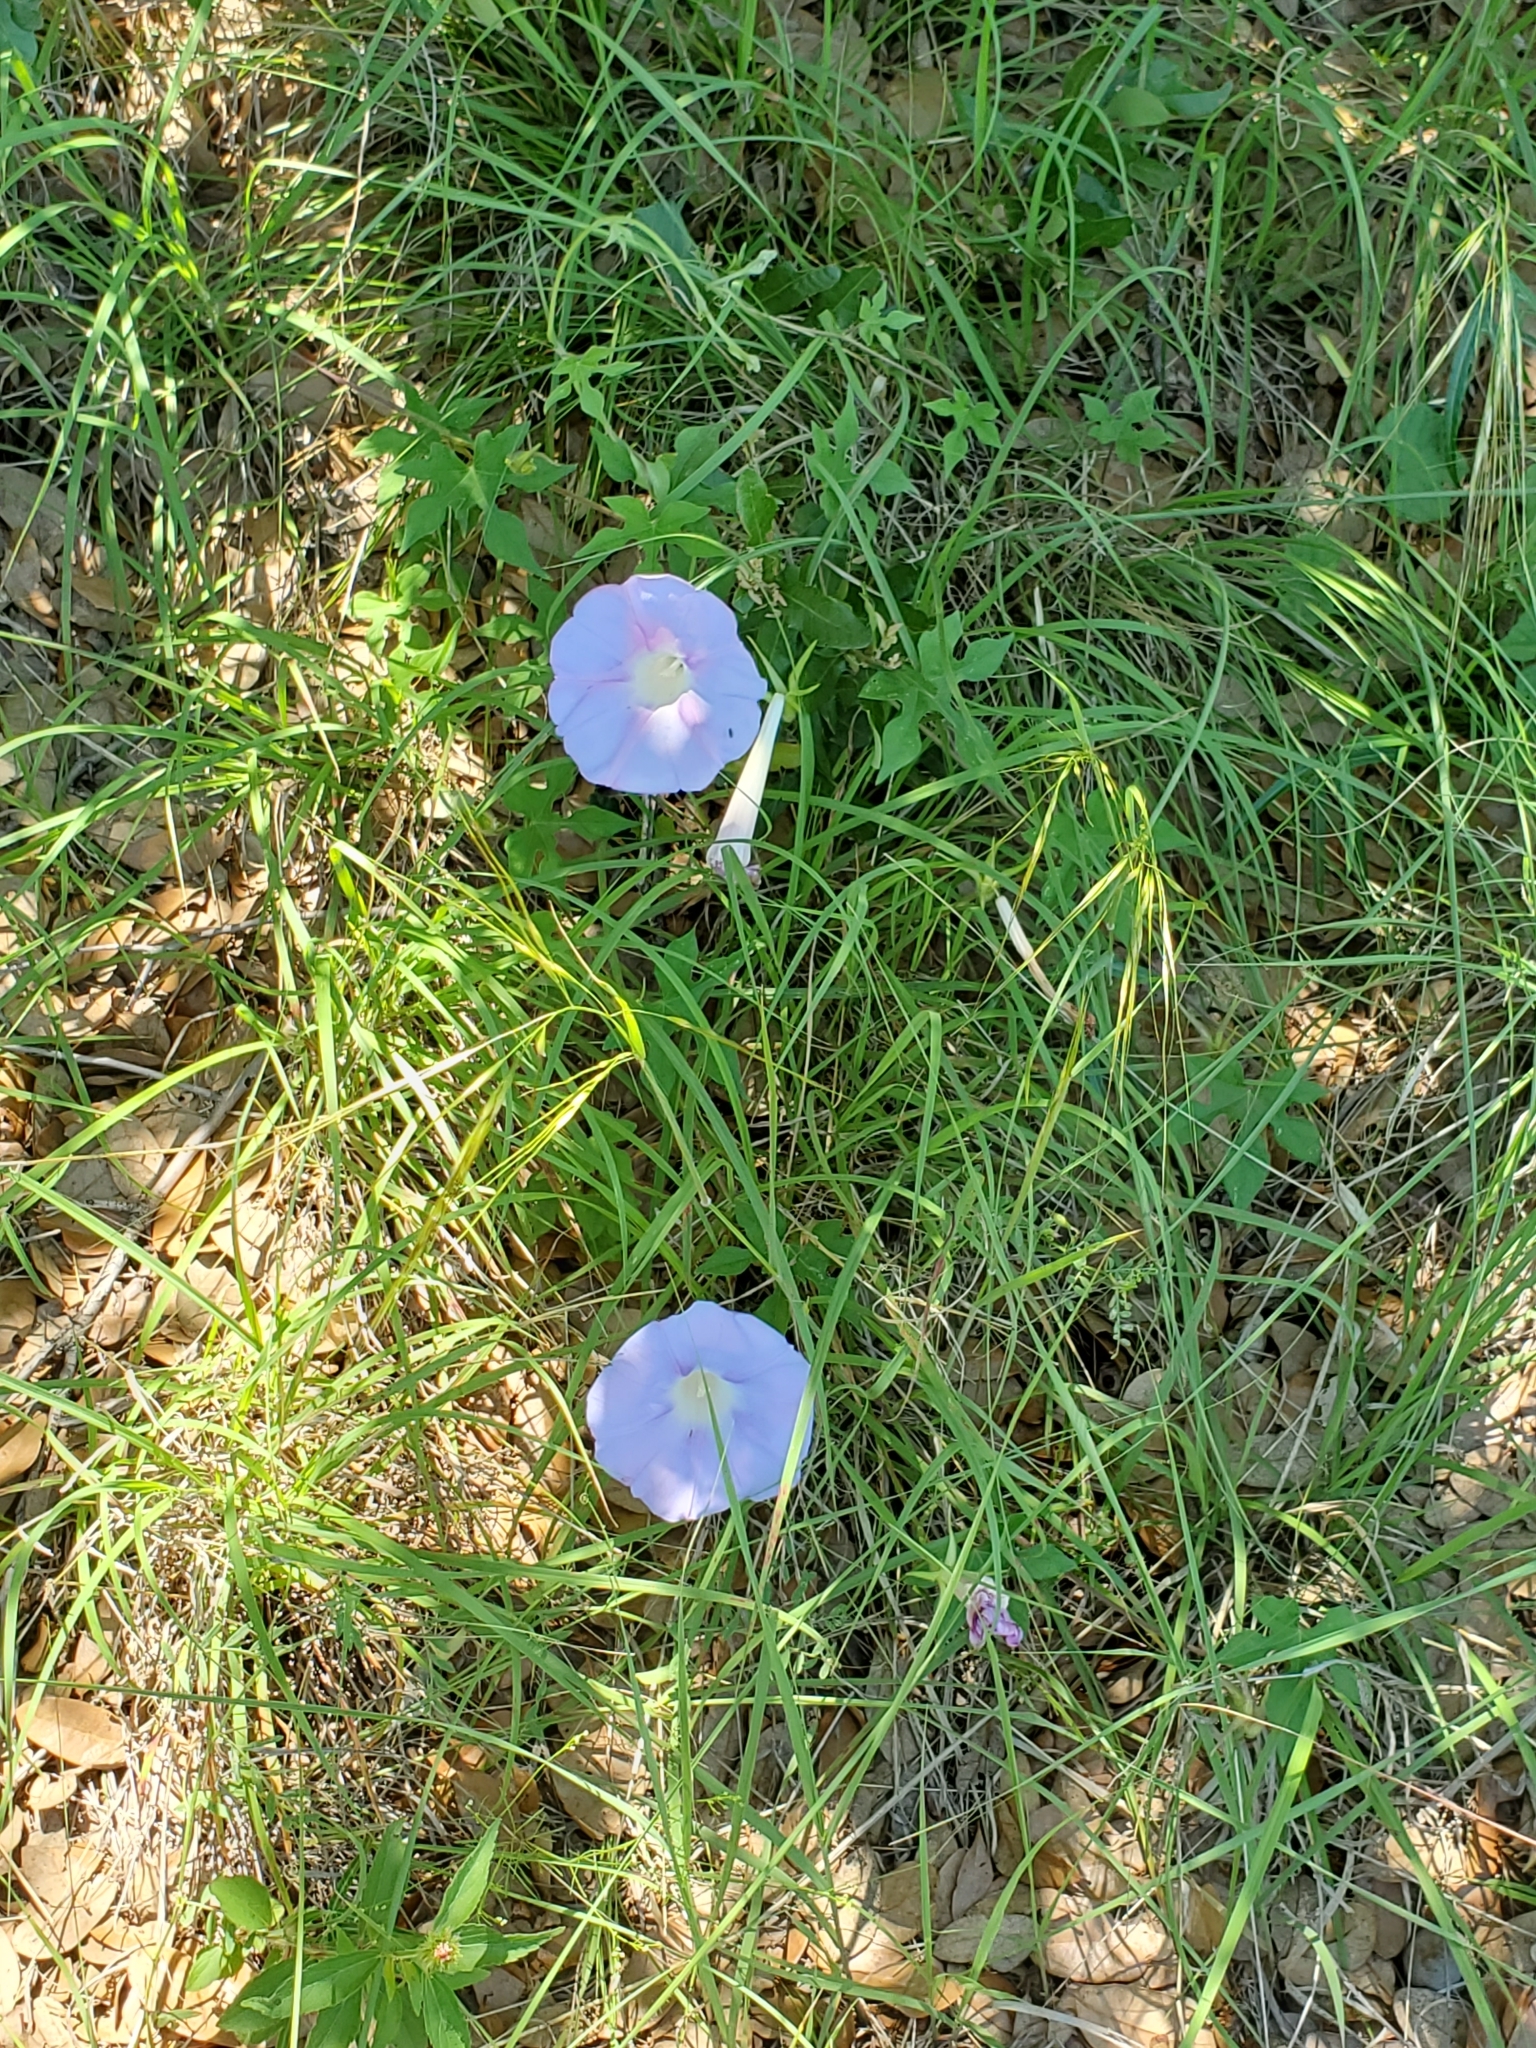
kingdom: Plantae
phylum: Tracheophyta
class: Magnoliopsida
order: Solanales
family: Convolvulaceae
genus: Ipomoea
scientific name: Ipomoea lindheimeri
